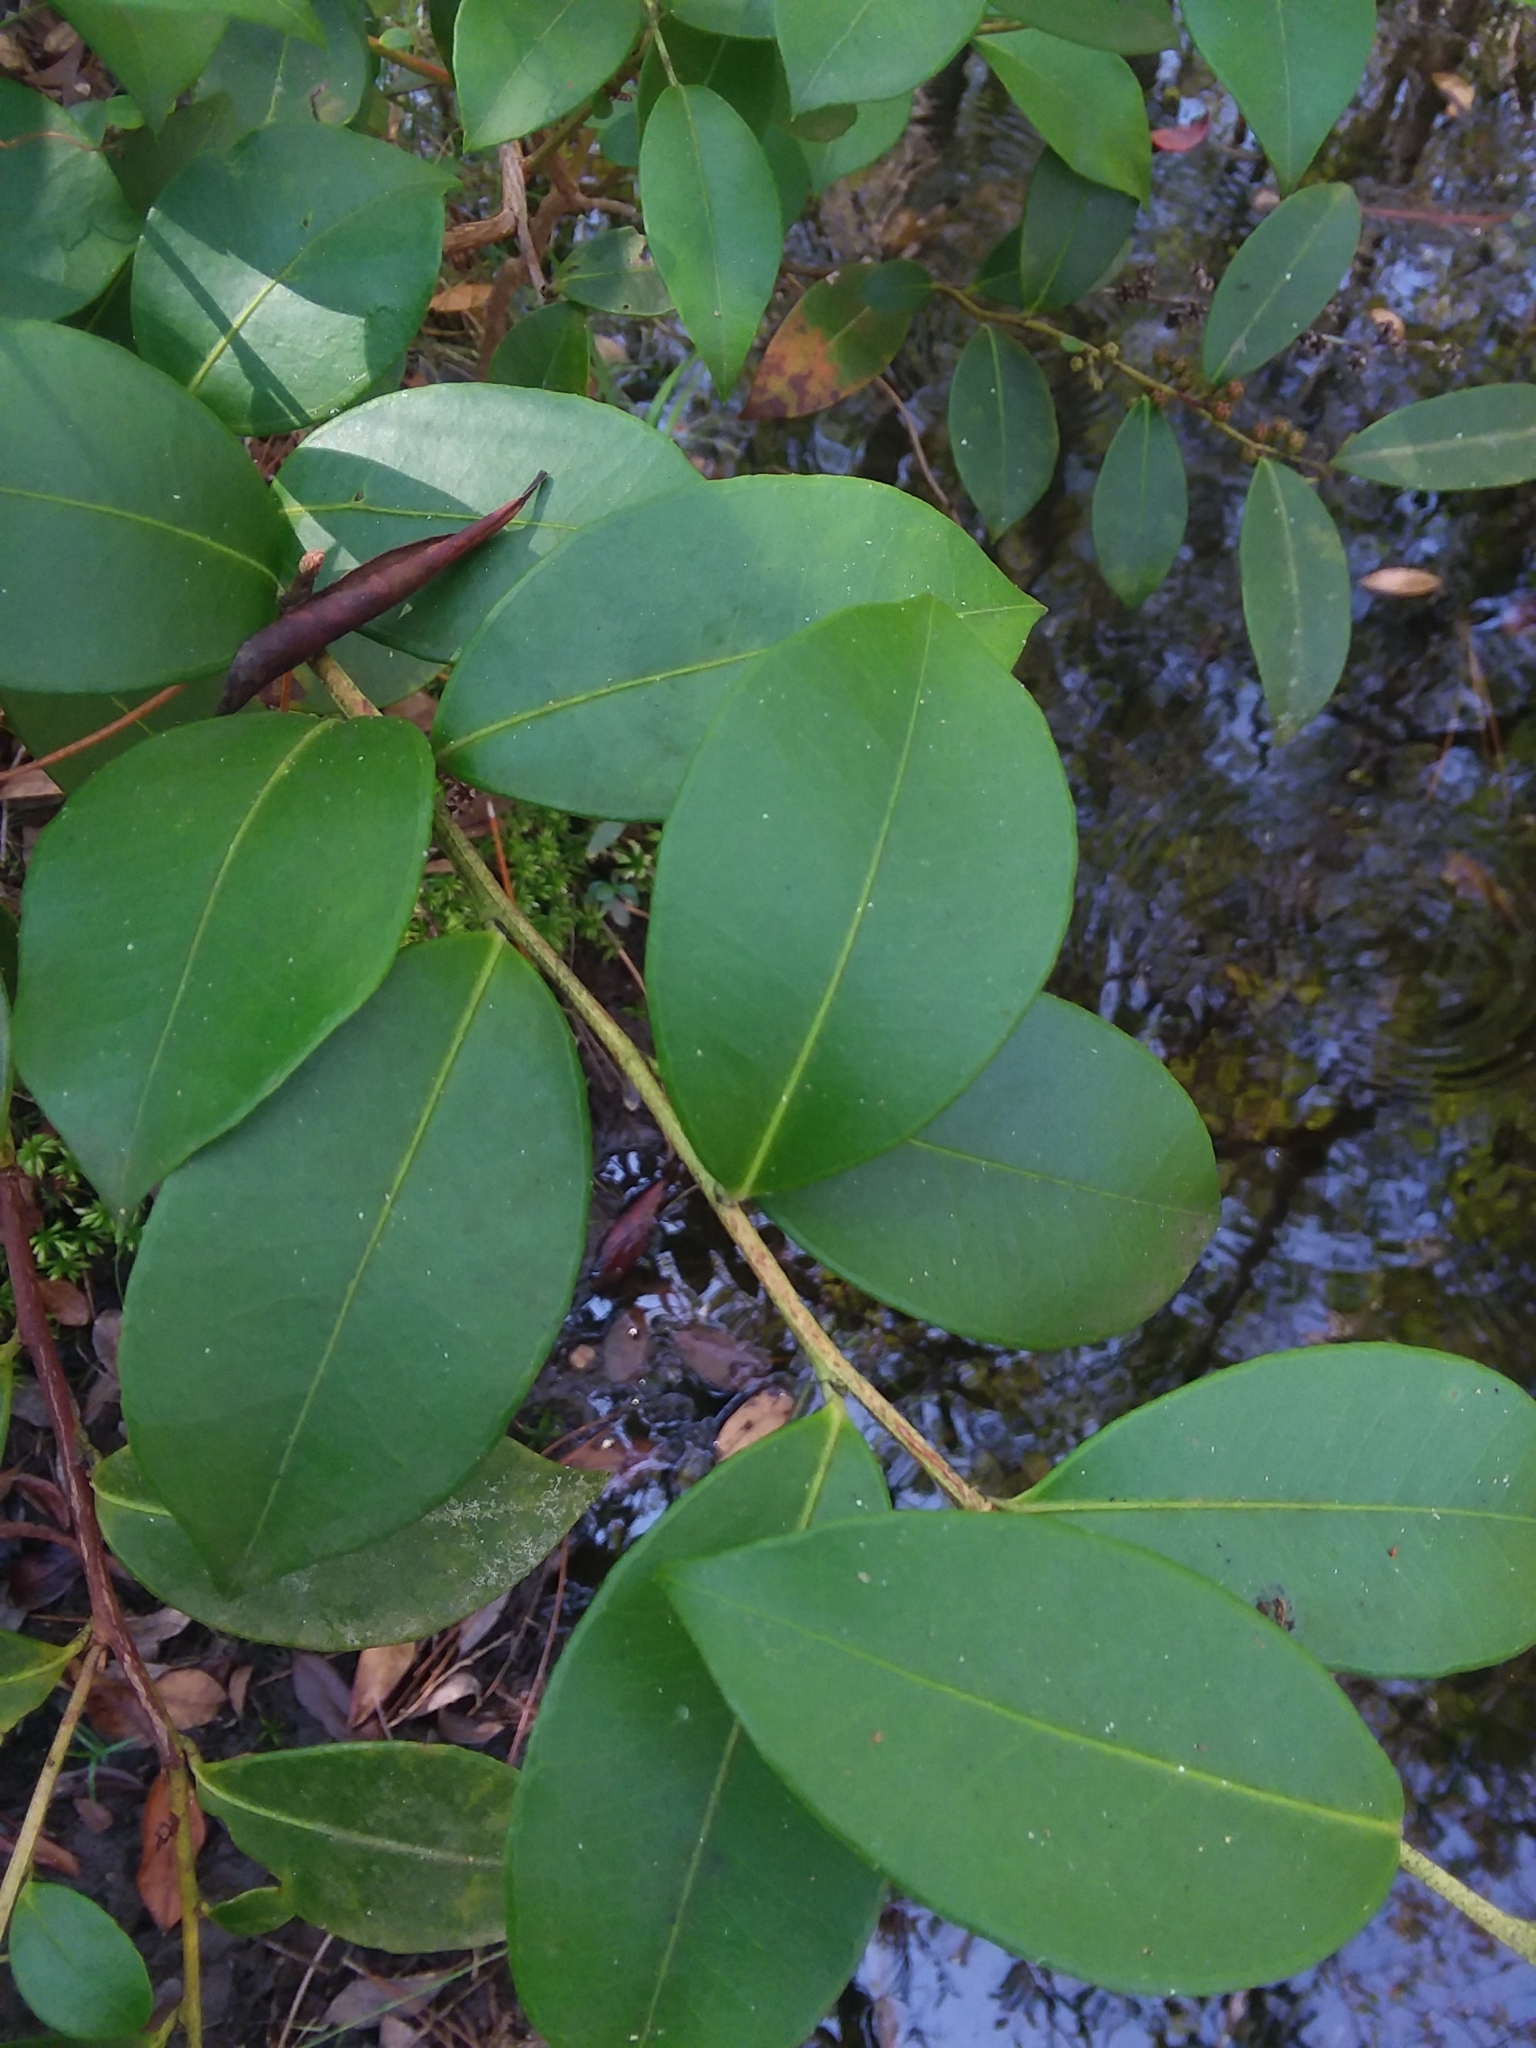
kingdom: Plantae
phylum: Tracheophyta
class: Magnoliopsida
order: Ericales
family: Ericaceae
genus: Lyonia
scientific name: Lyonia lucida
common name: Fetterbush
